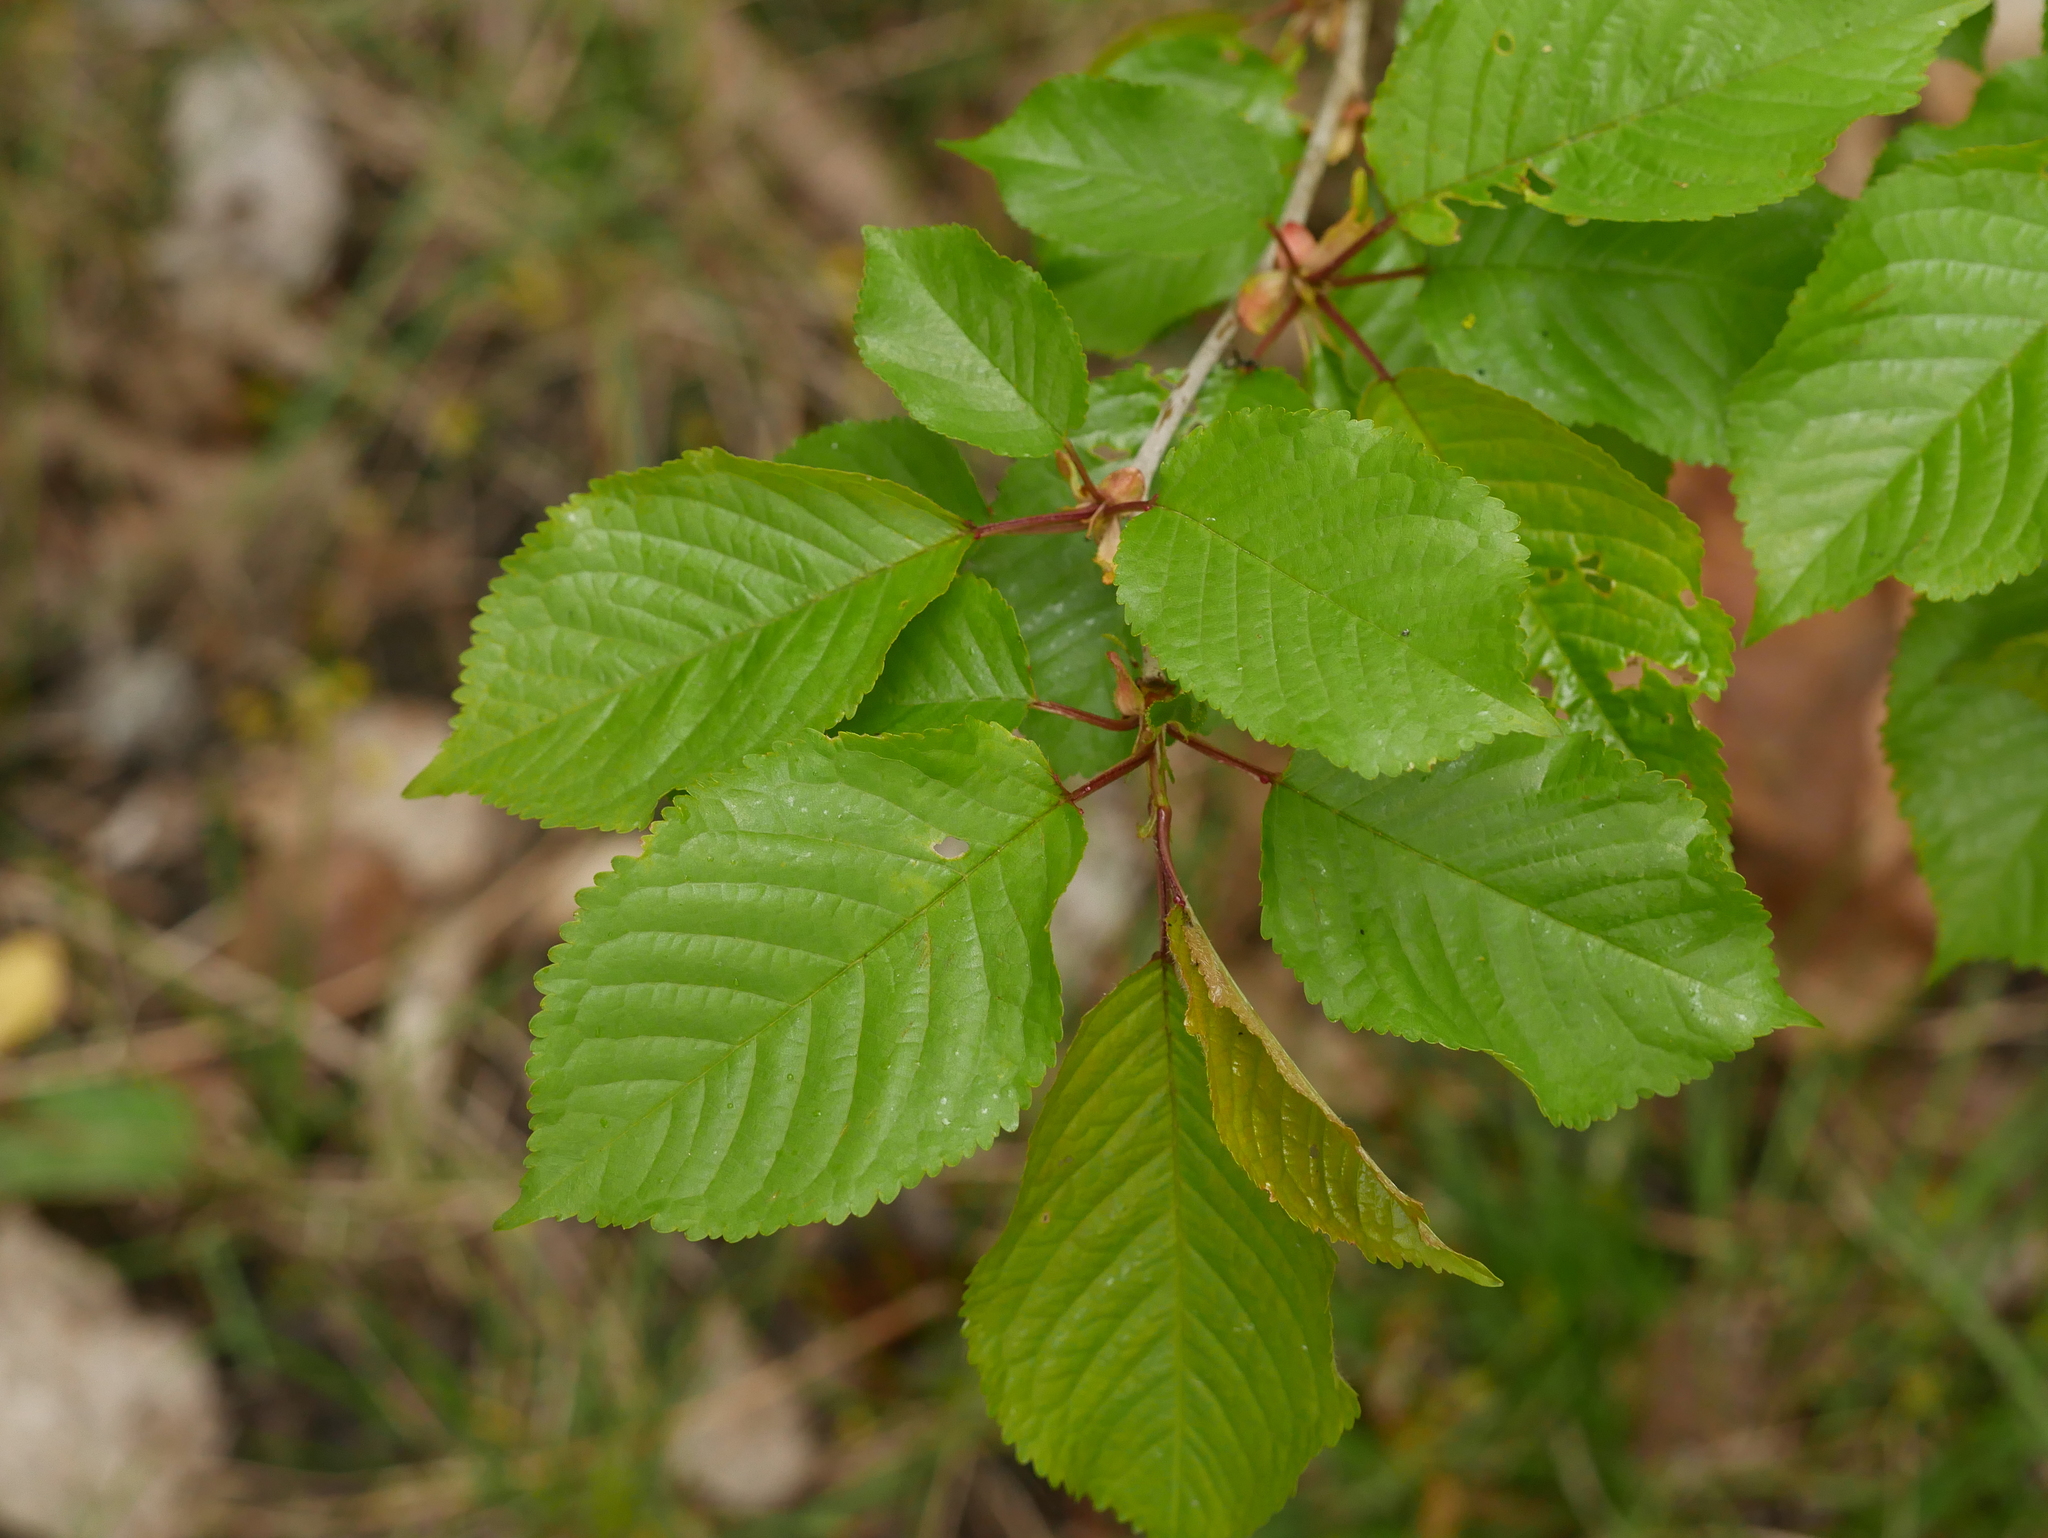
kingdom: Plantae
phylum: Tracheophyta
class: Magnoliopsida
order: Rosales
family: Rosaceae
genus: Prunus
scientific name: Prunus avium
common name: Sweet cherry
